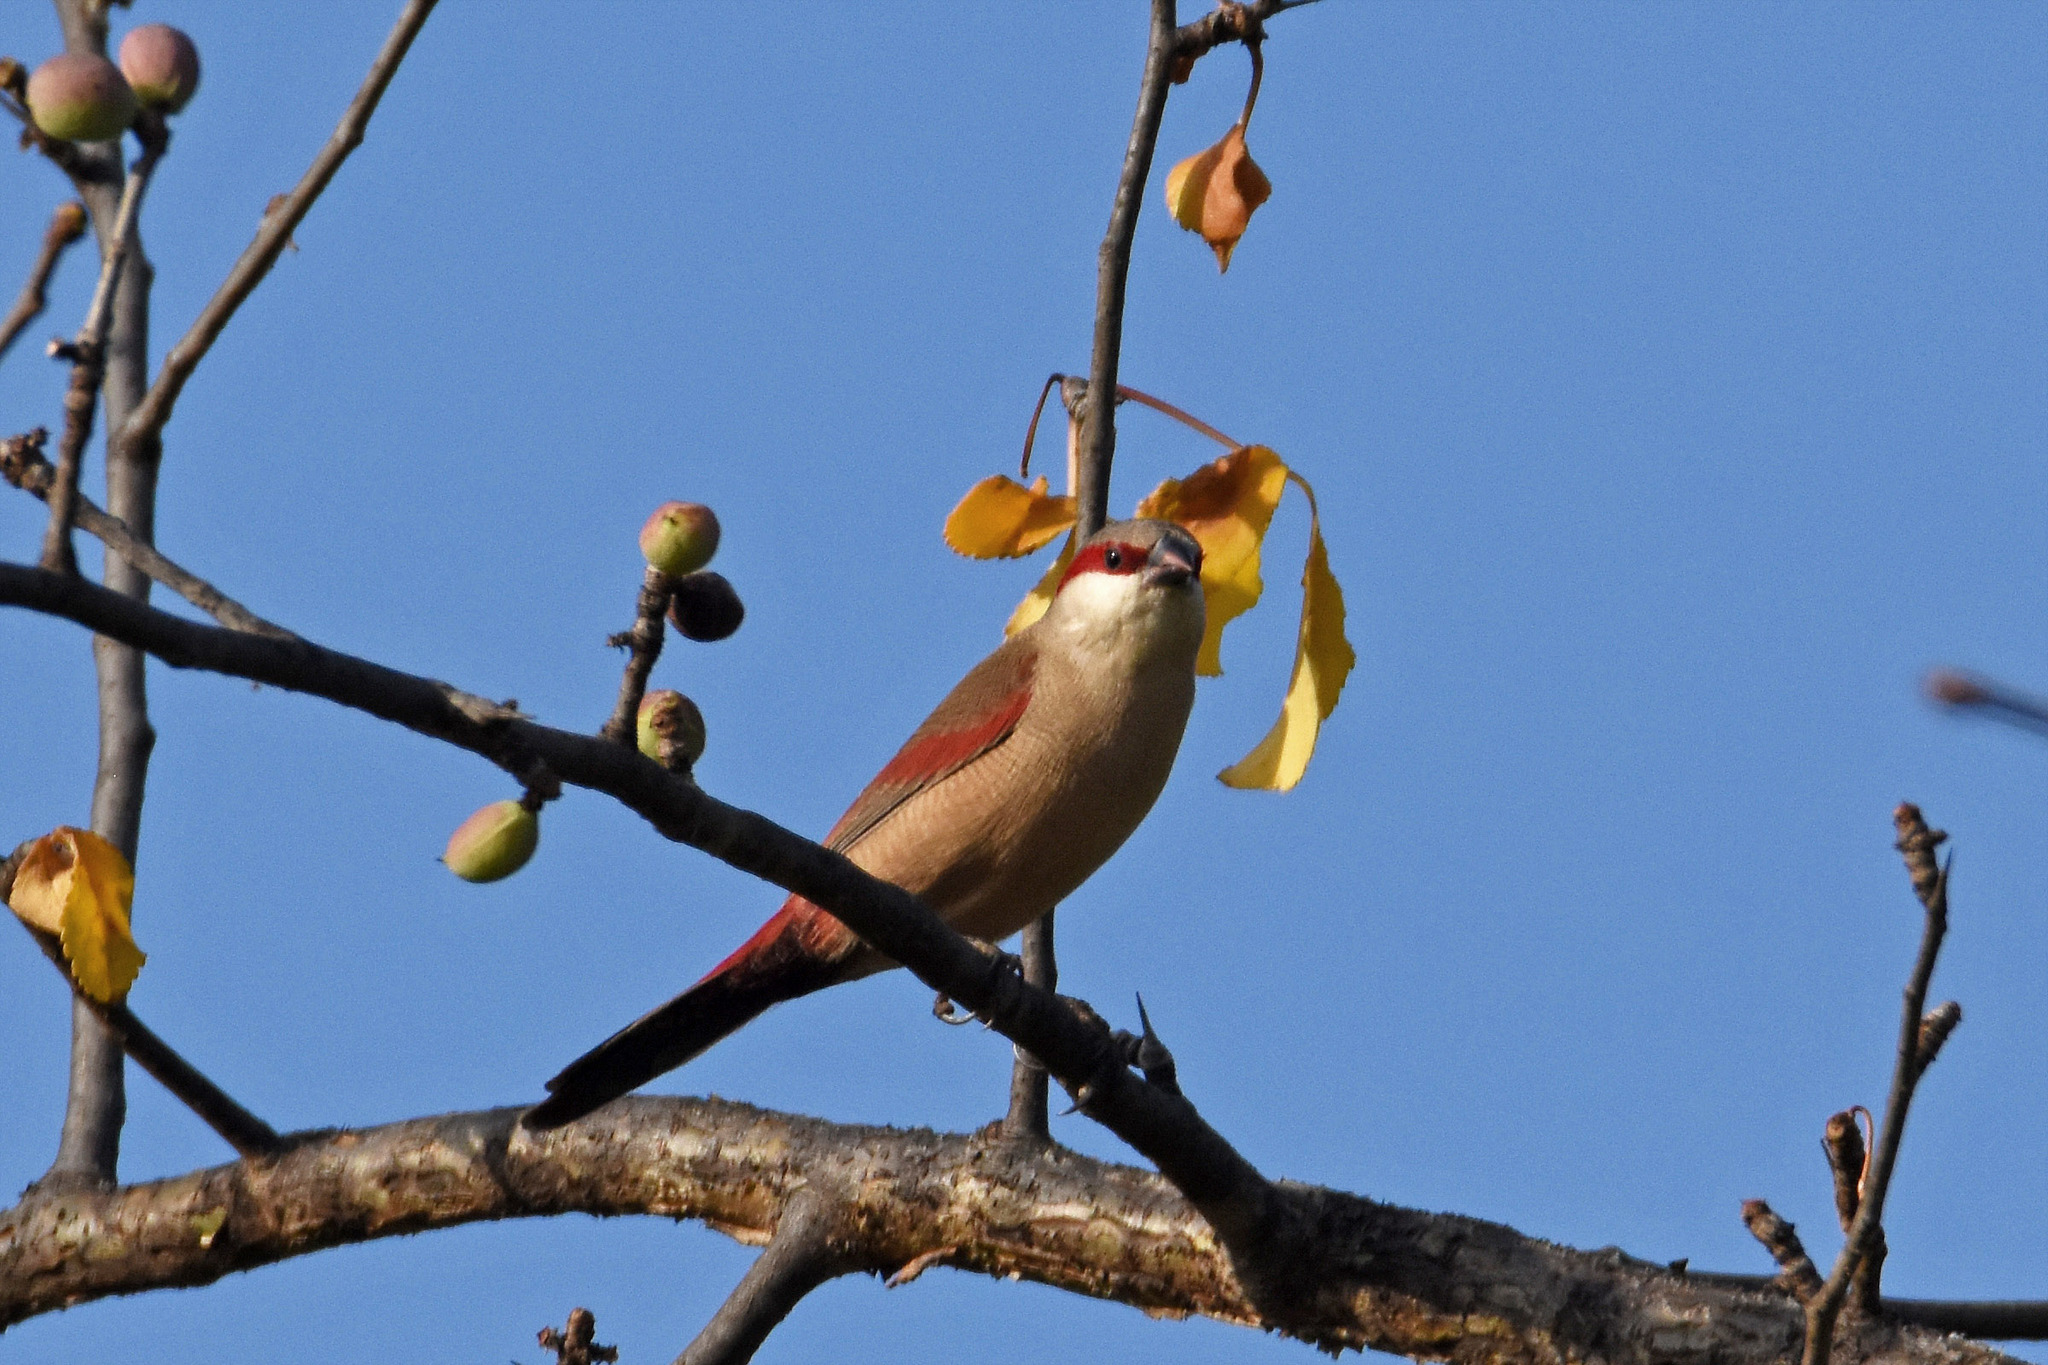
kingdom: Animalia
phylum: Chordata
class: Aves
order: Passeriformes
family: Estrildidae
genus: Estrilda
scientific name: Estrilda rhodopyga
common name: Crimson-rumped waxbill
